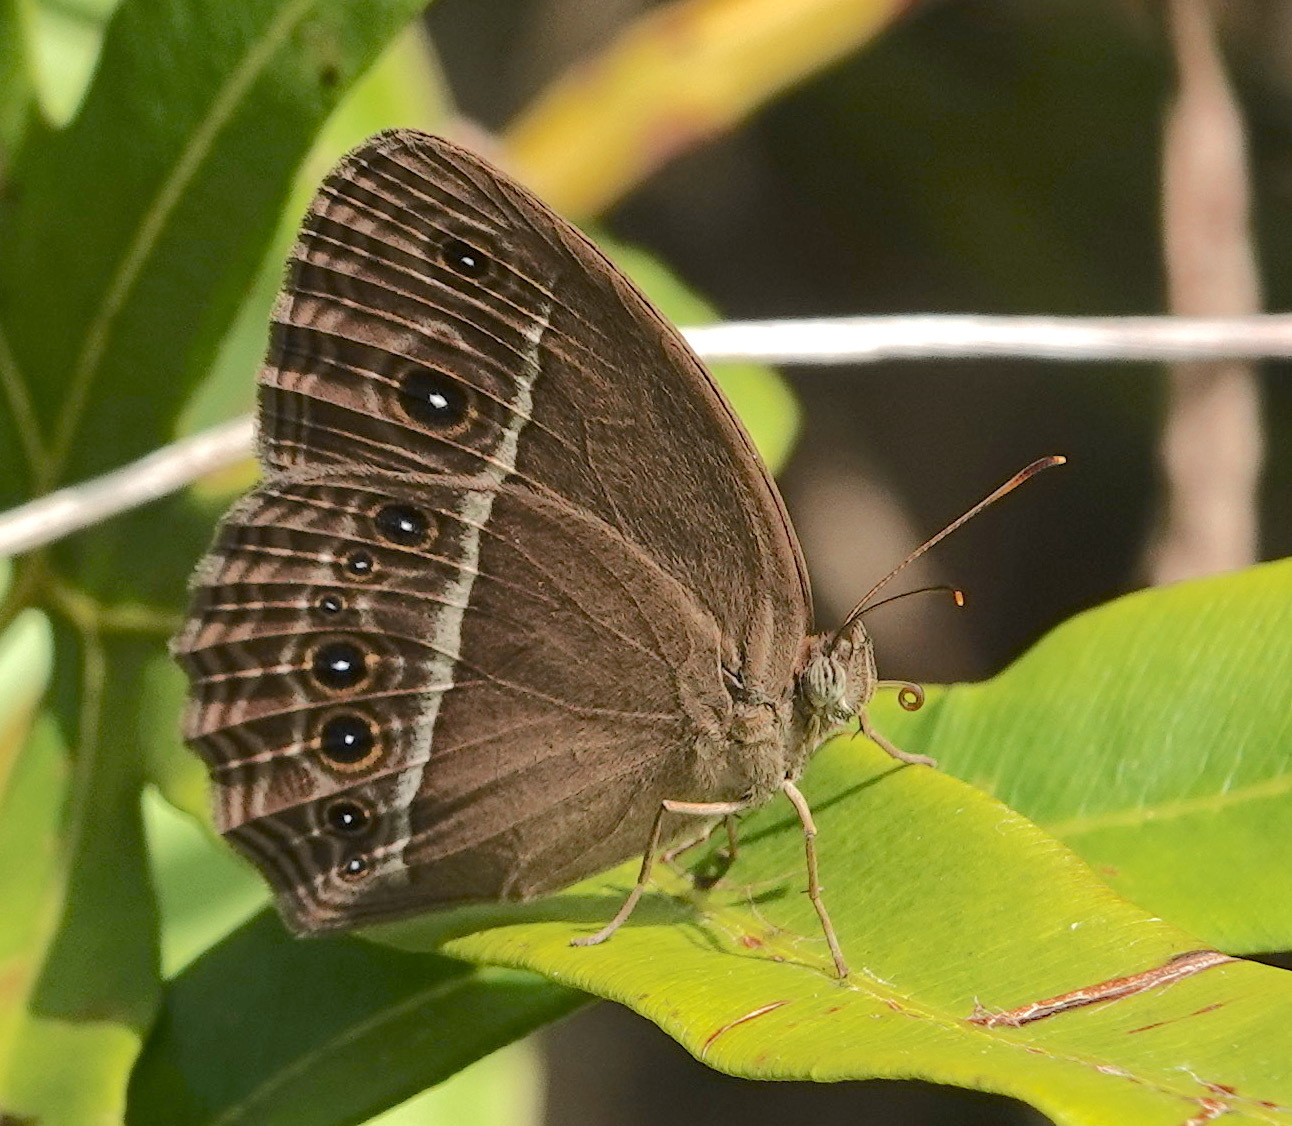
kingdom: Animalia
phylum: Arthropoda
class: Insecta
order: Lepidoptera
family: Nymphalidae
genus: Mycalesis
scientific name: Mycalesis mineus
